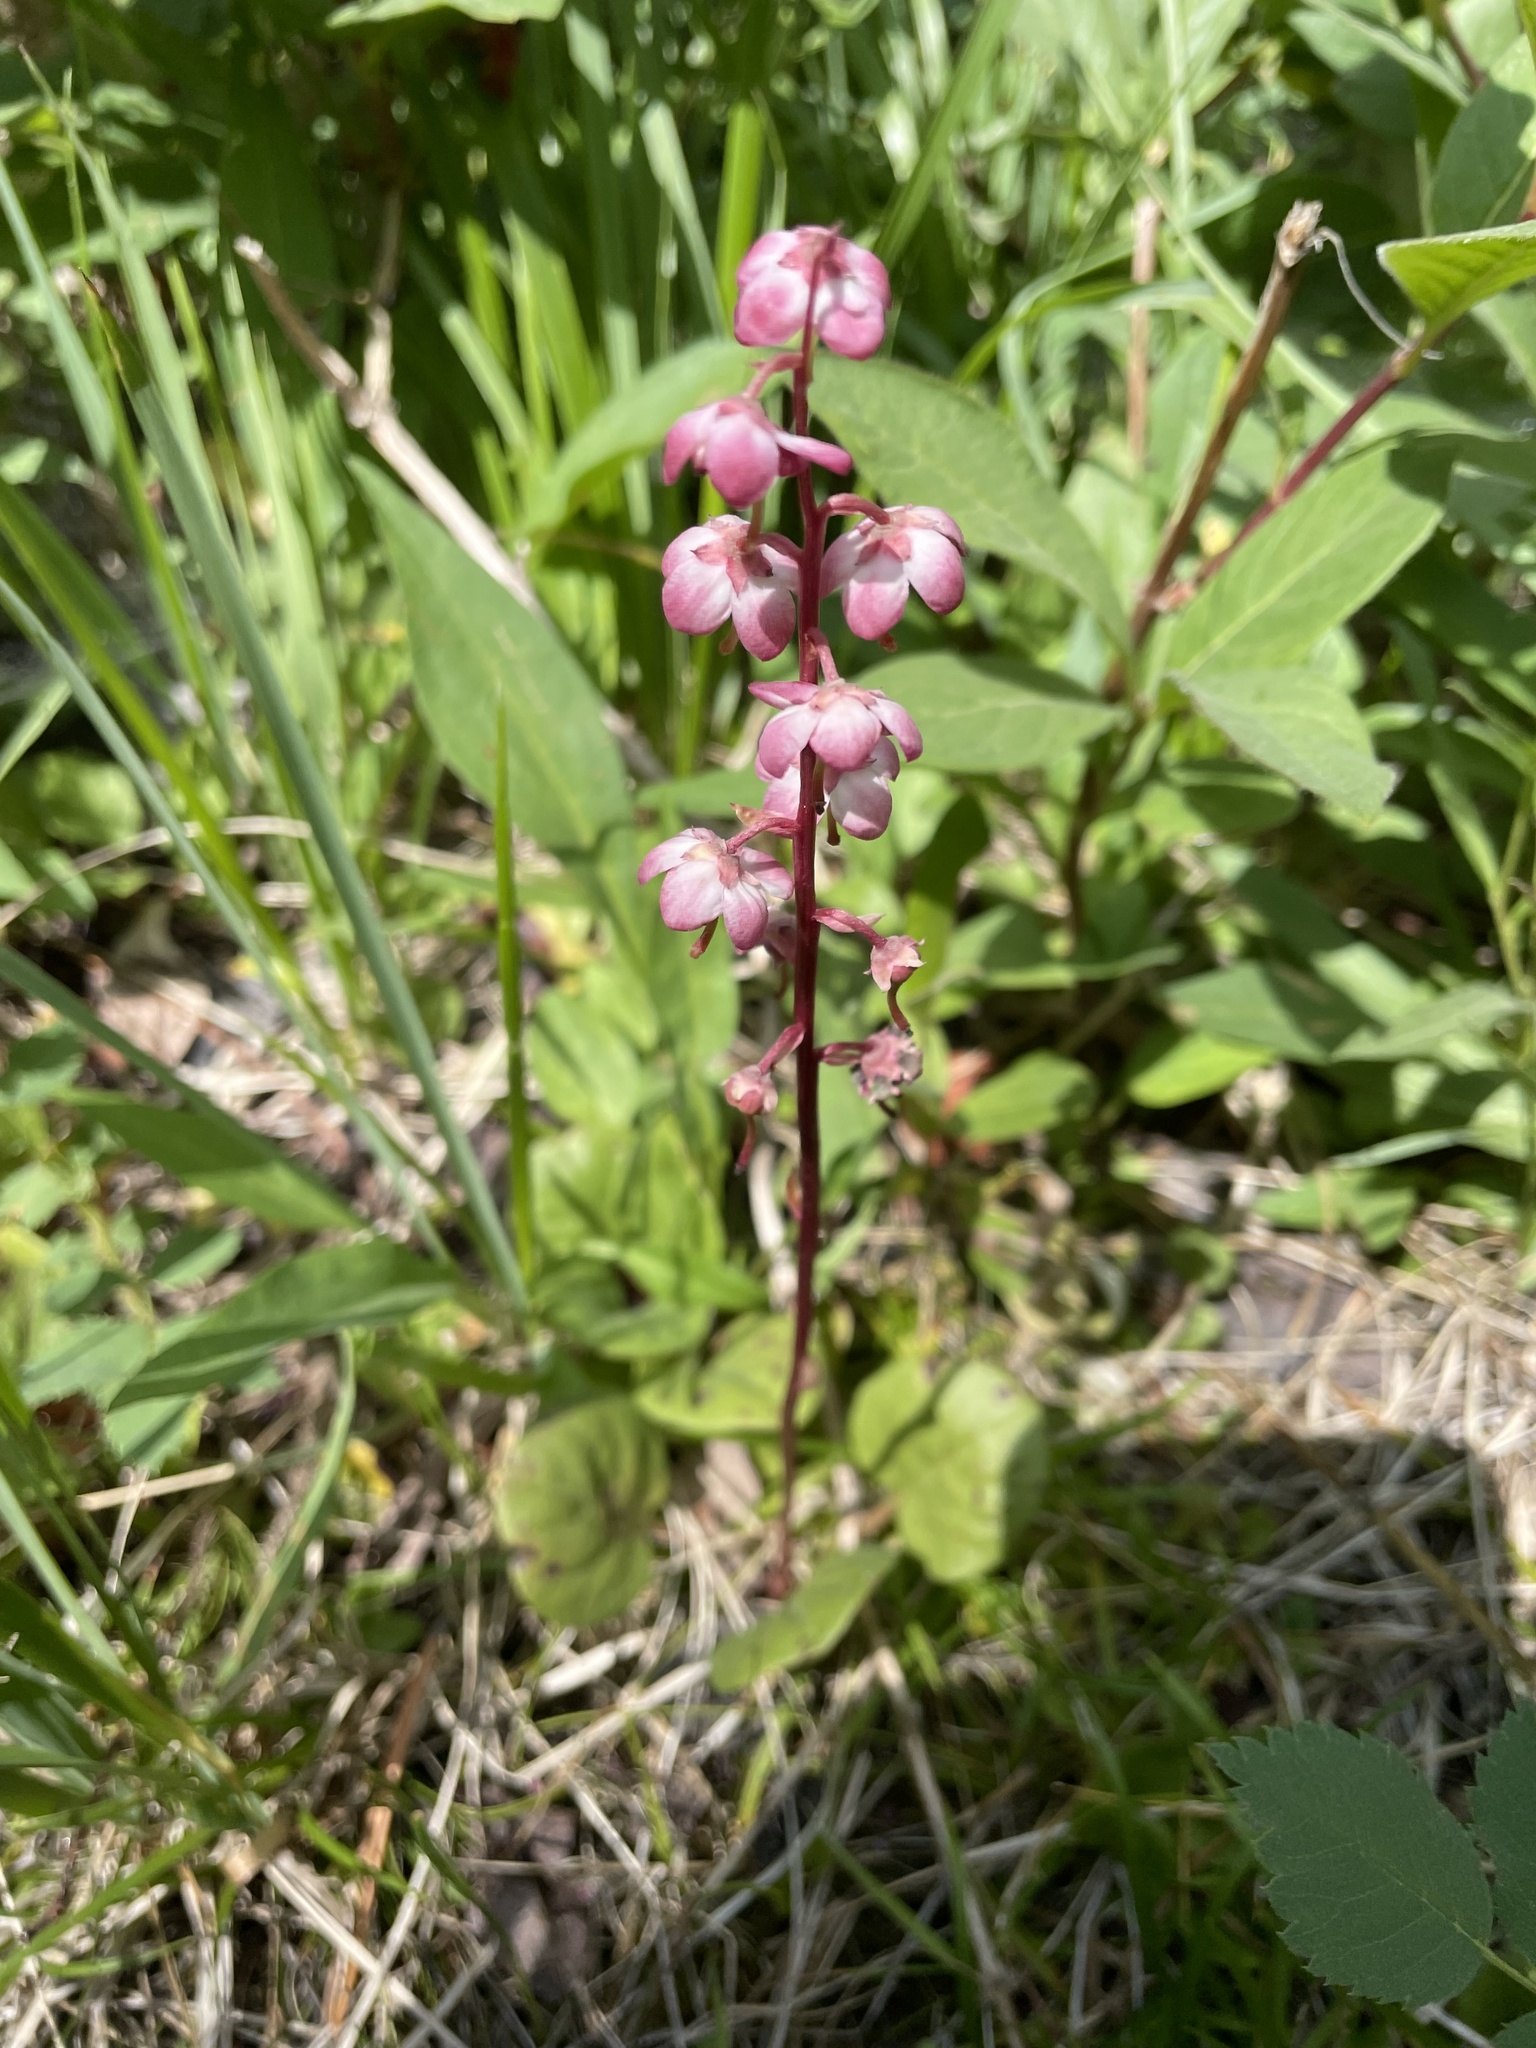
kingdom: Plantae
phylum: Tracheophyta
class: Magnoliopsida
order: Ericales
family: Ericaceae
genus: Pyrola
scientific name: Pyrola asarifolia
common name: Bog wintergreen
